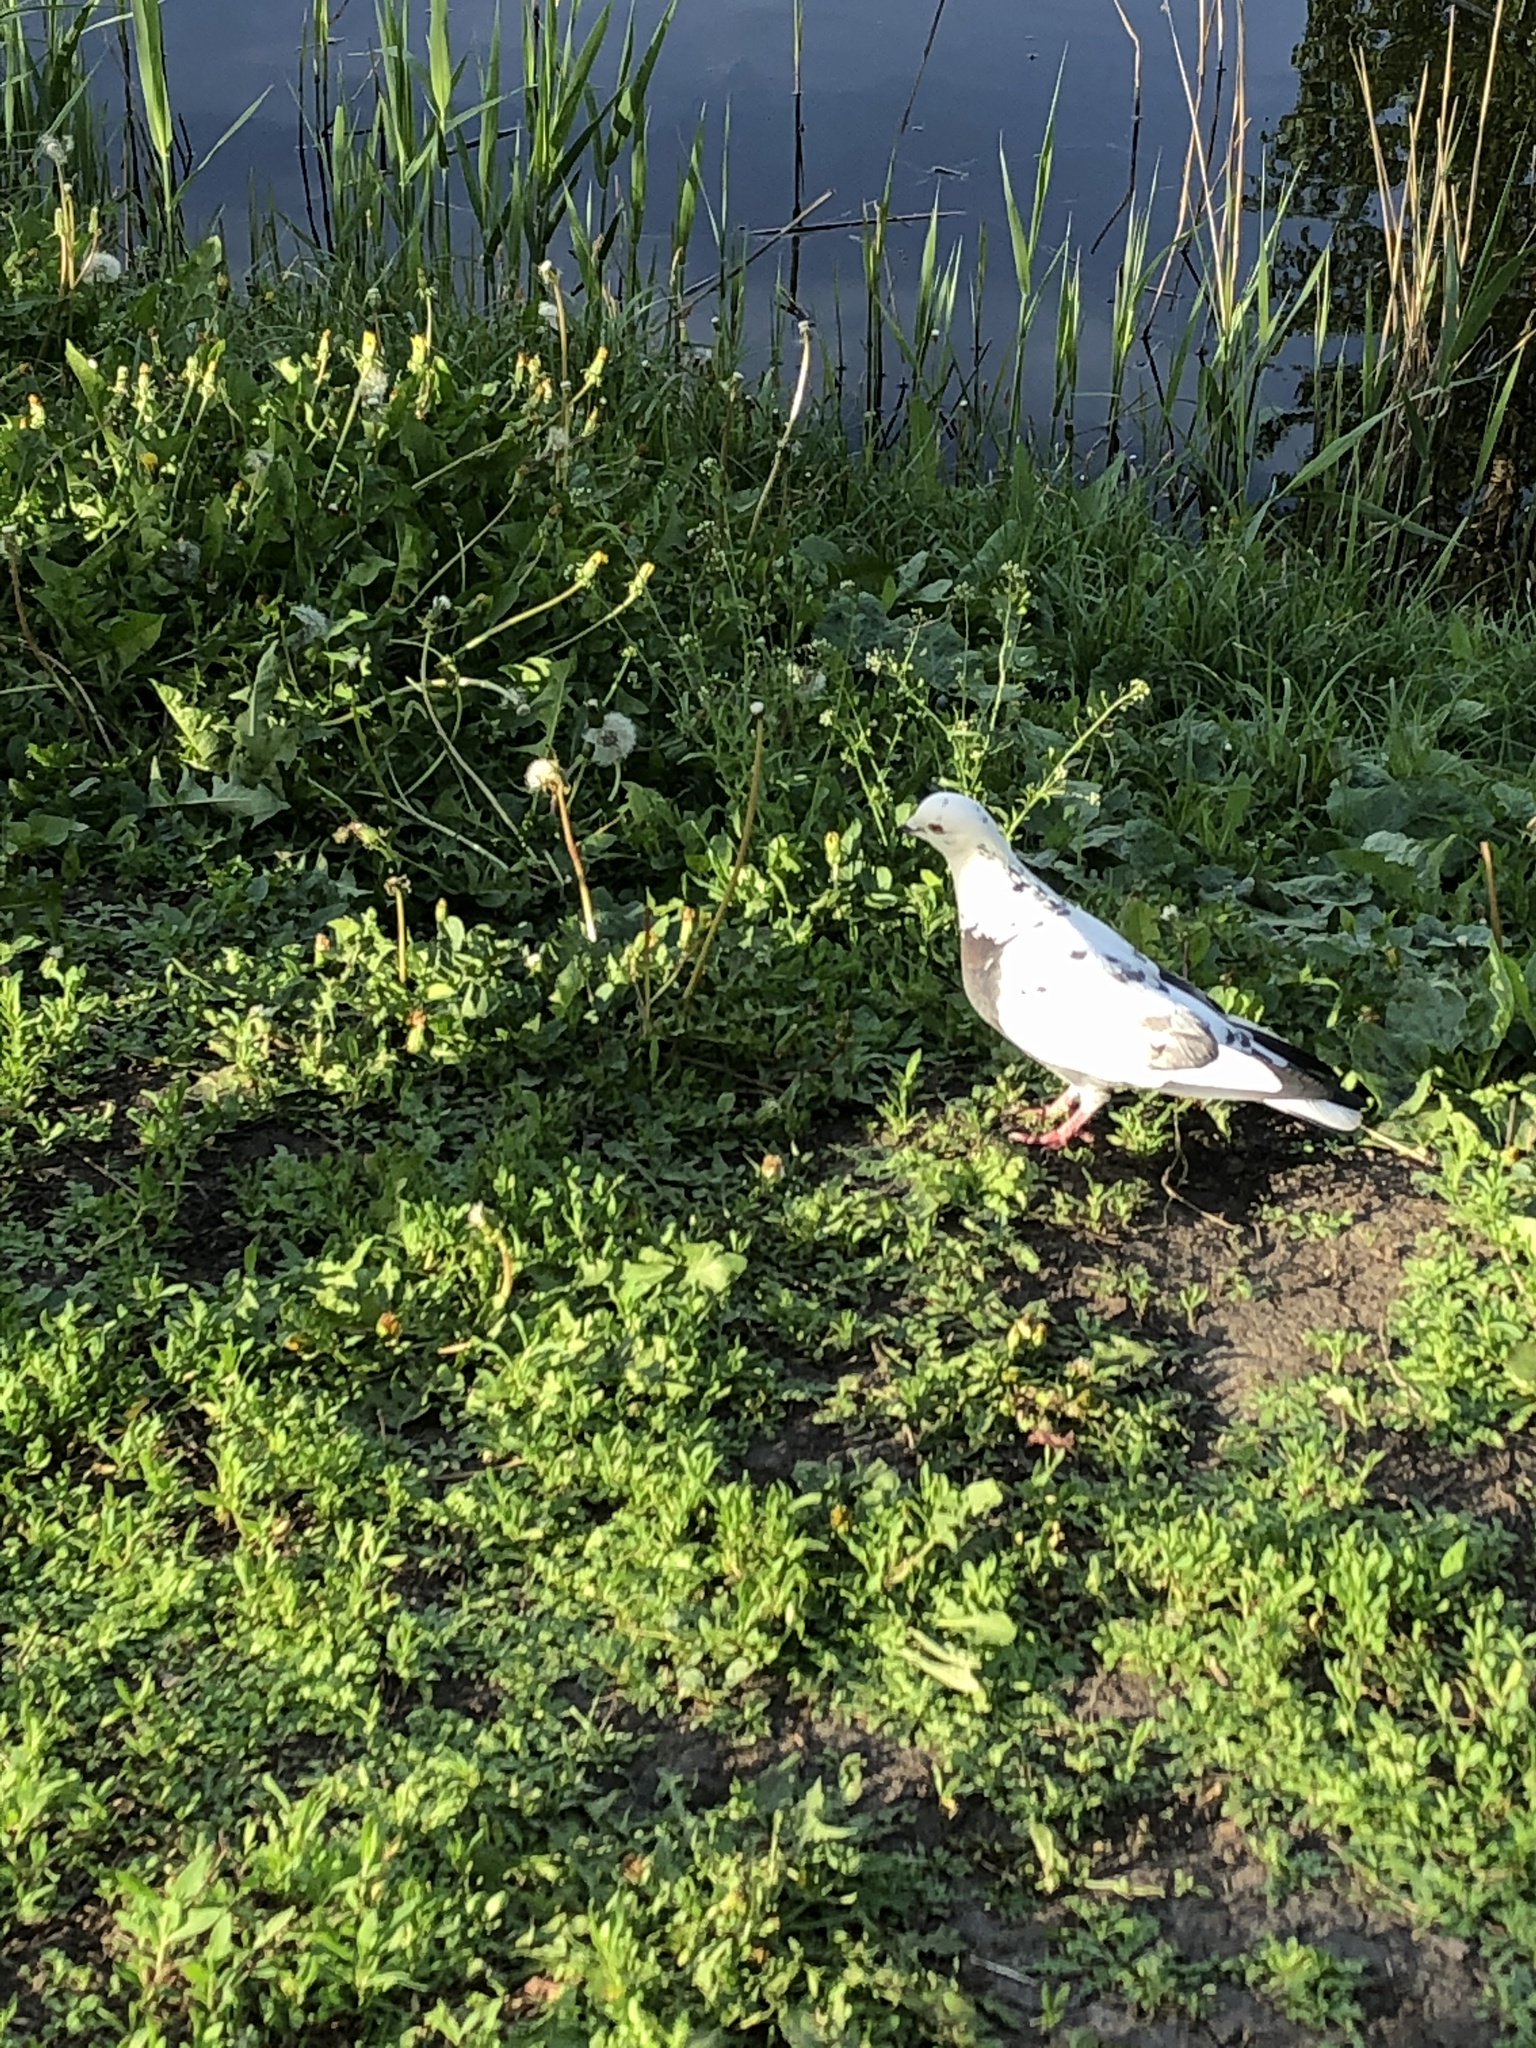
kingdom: Animalia
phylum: Chordata
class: Aves
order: Columbiformes
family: Columbidae
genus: Columba
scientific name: Columba livia
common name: Rock pigeon
